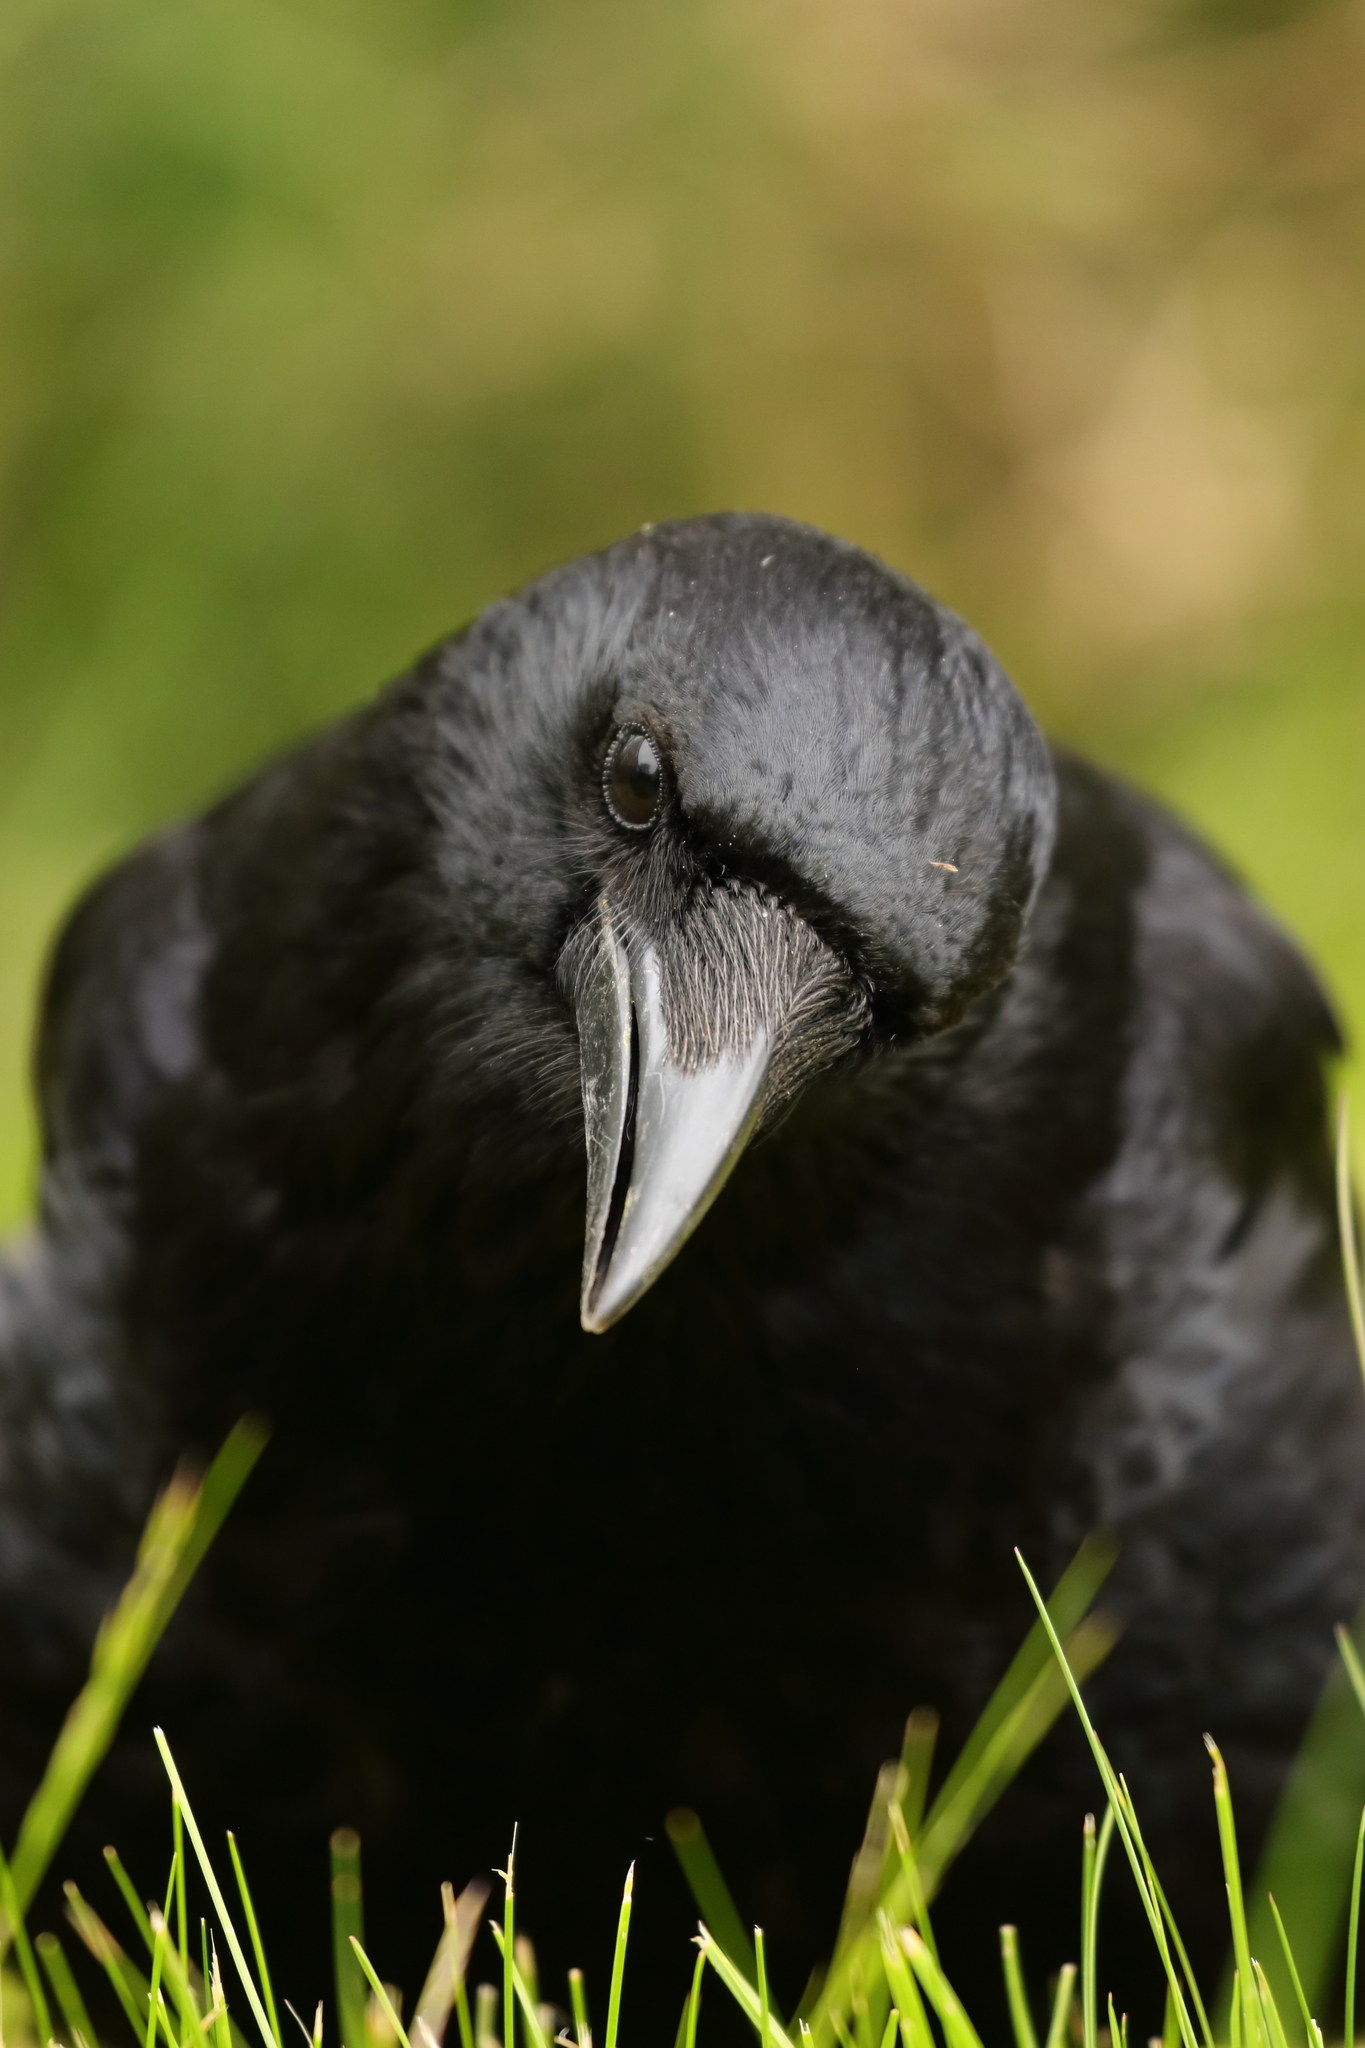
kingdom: Animalia
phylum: Chordata
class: Aves
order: Passeriformes
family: Corvidae
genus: Corvus
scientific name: Corvus corone
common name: Carrion crow
